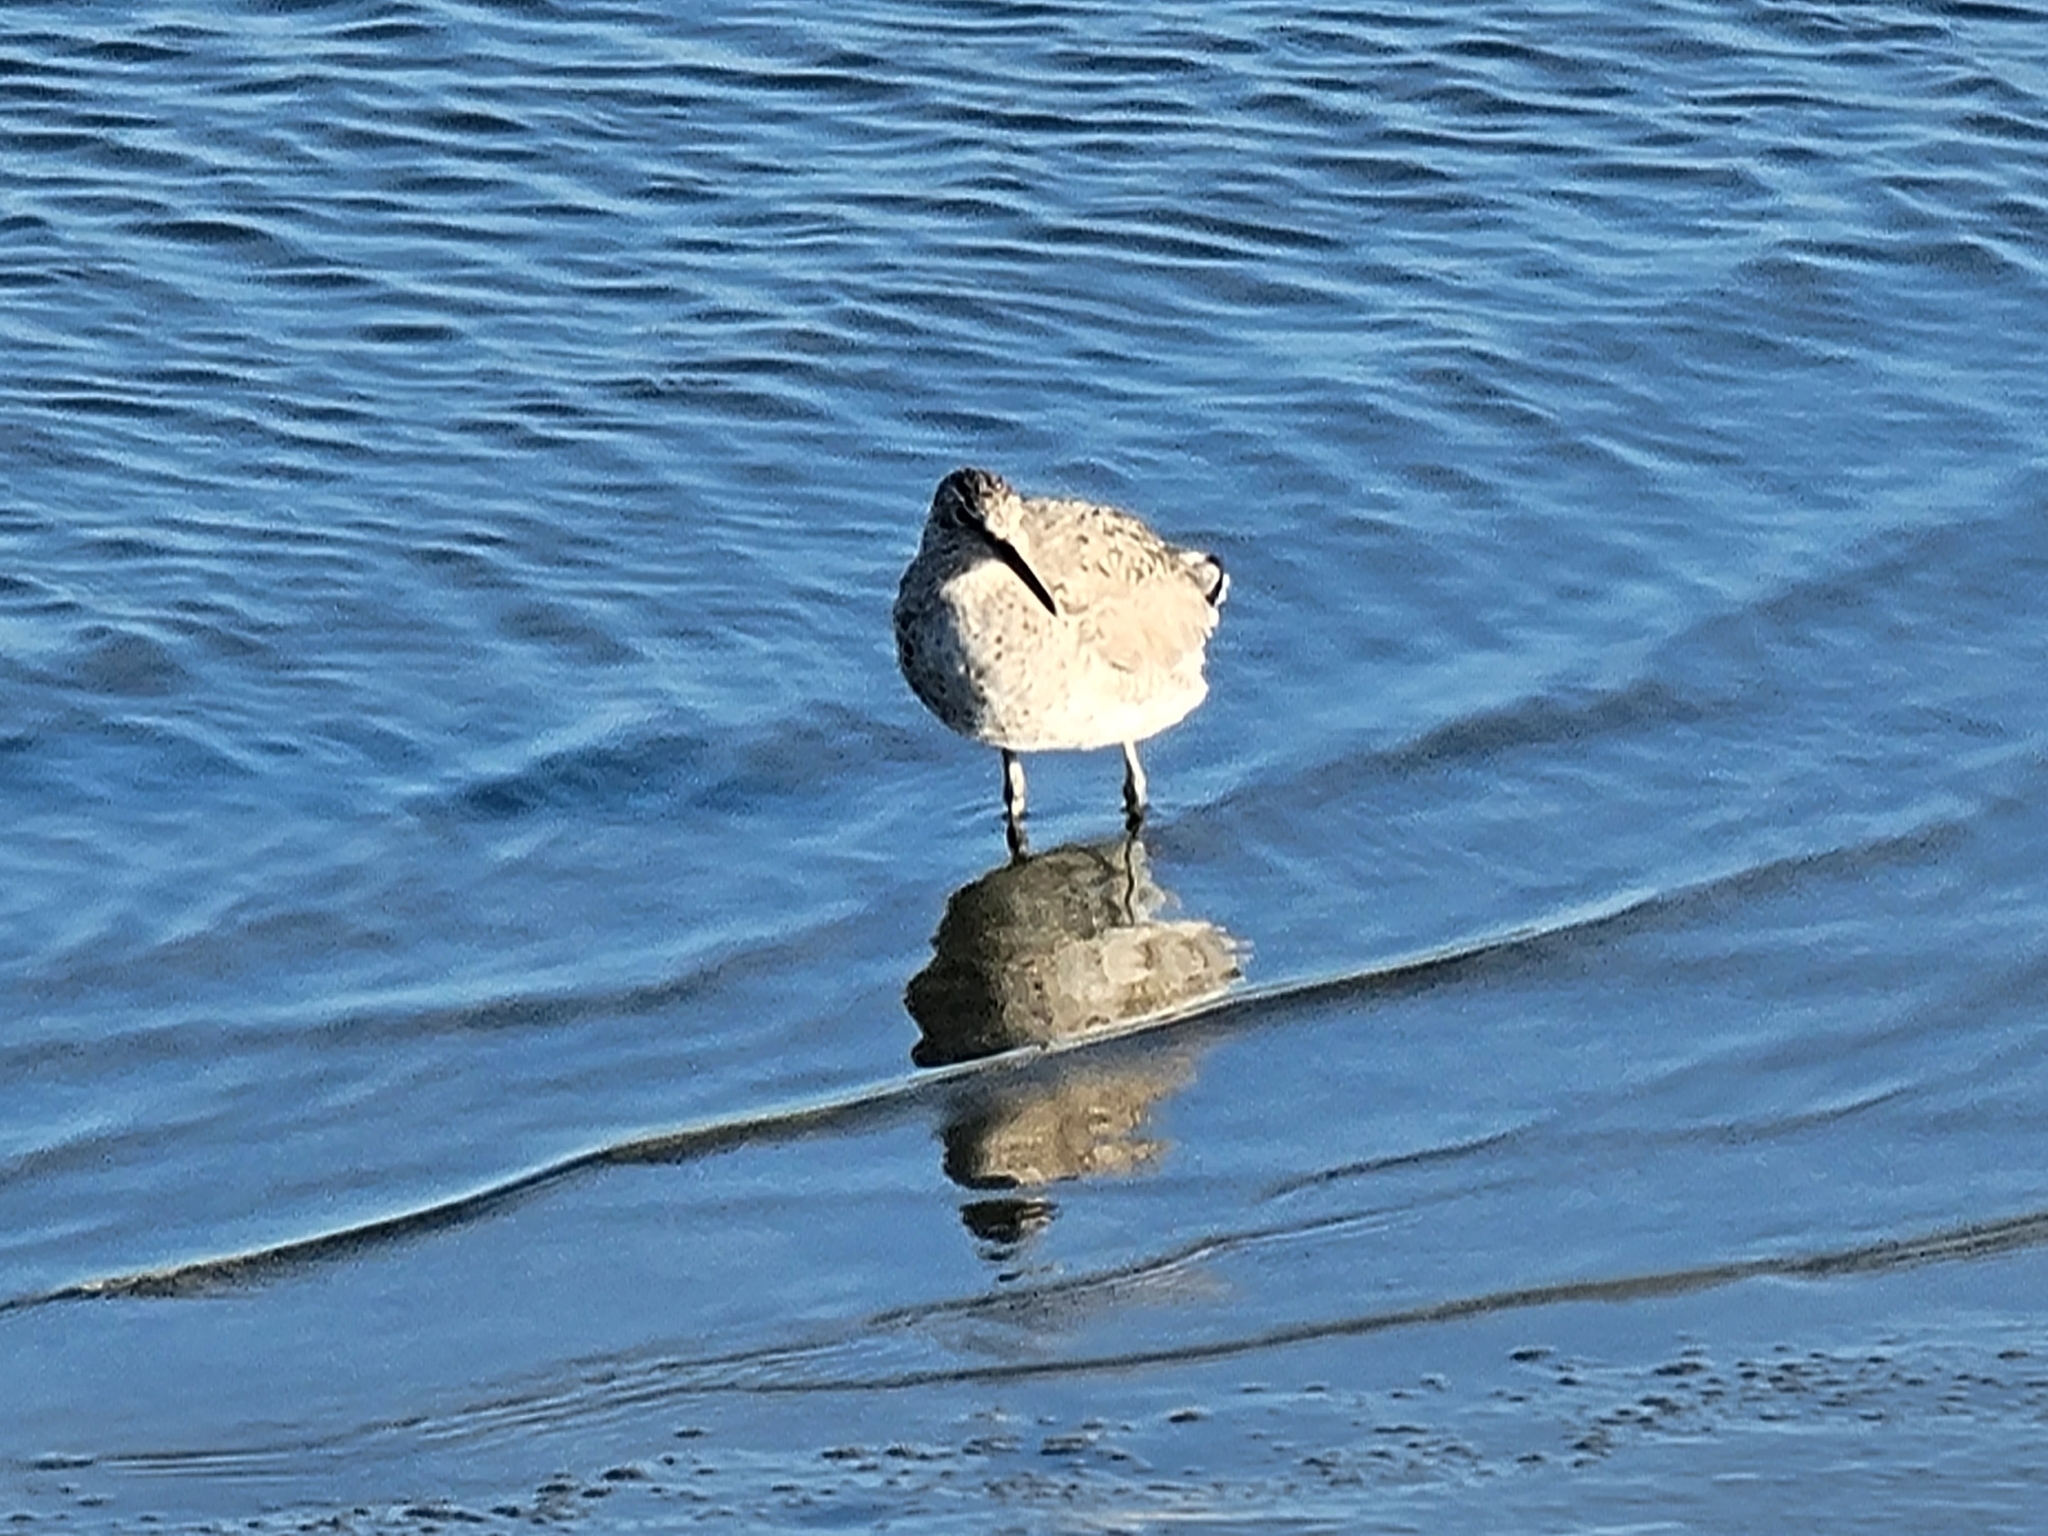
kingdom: Animalia
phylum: Chordata
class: Aves
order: Charadriiformes
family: Scolopacidae
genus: Tringa
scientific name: Tringa semipalmata
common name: Willet
